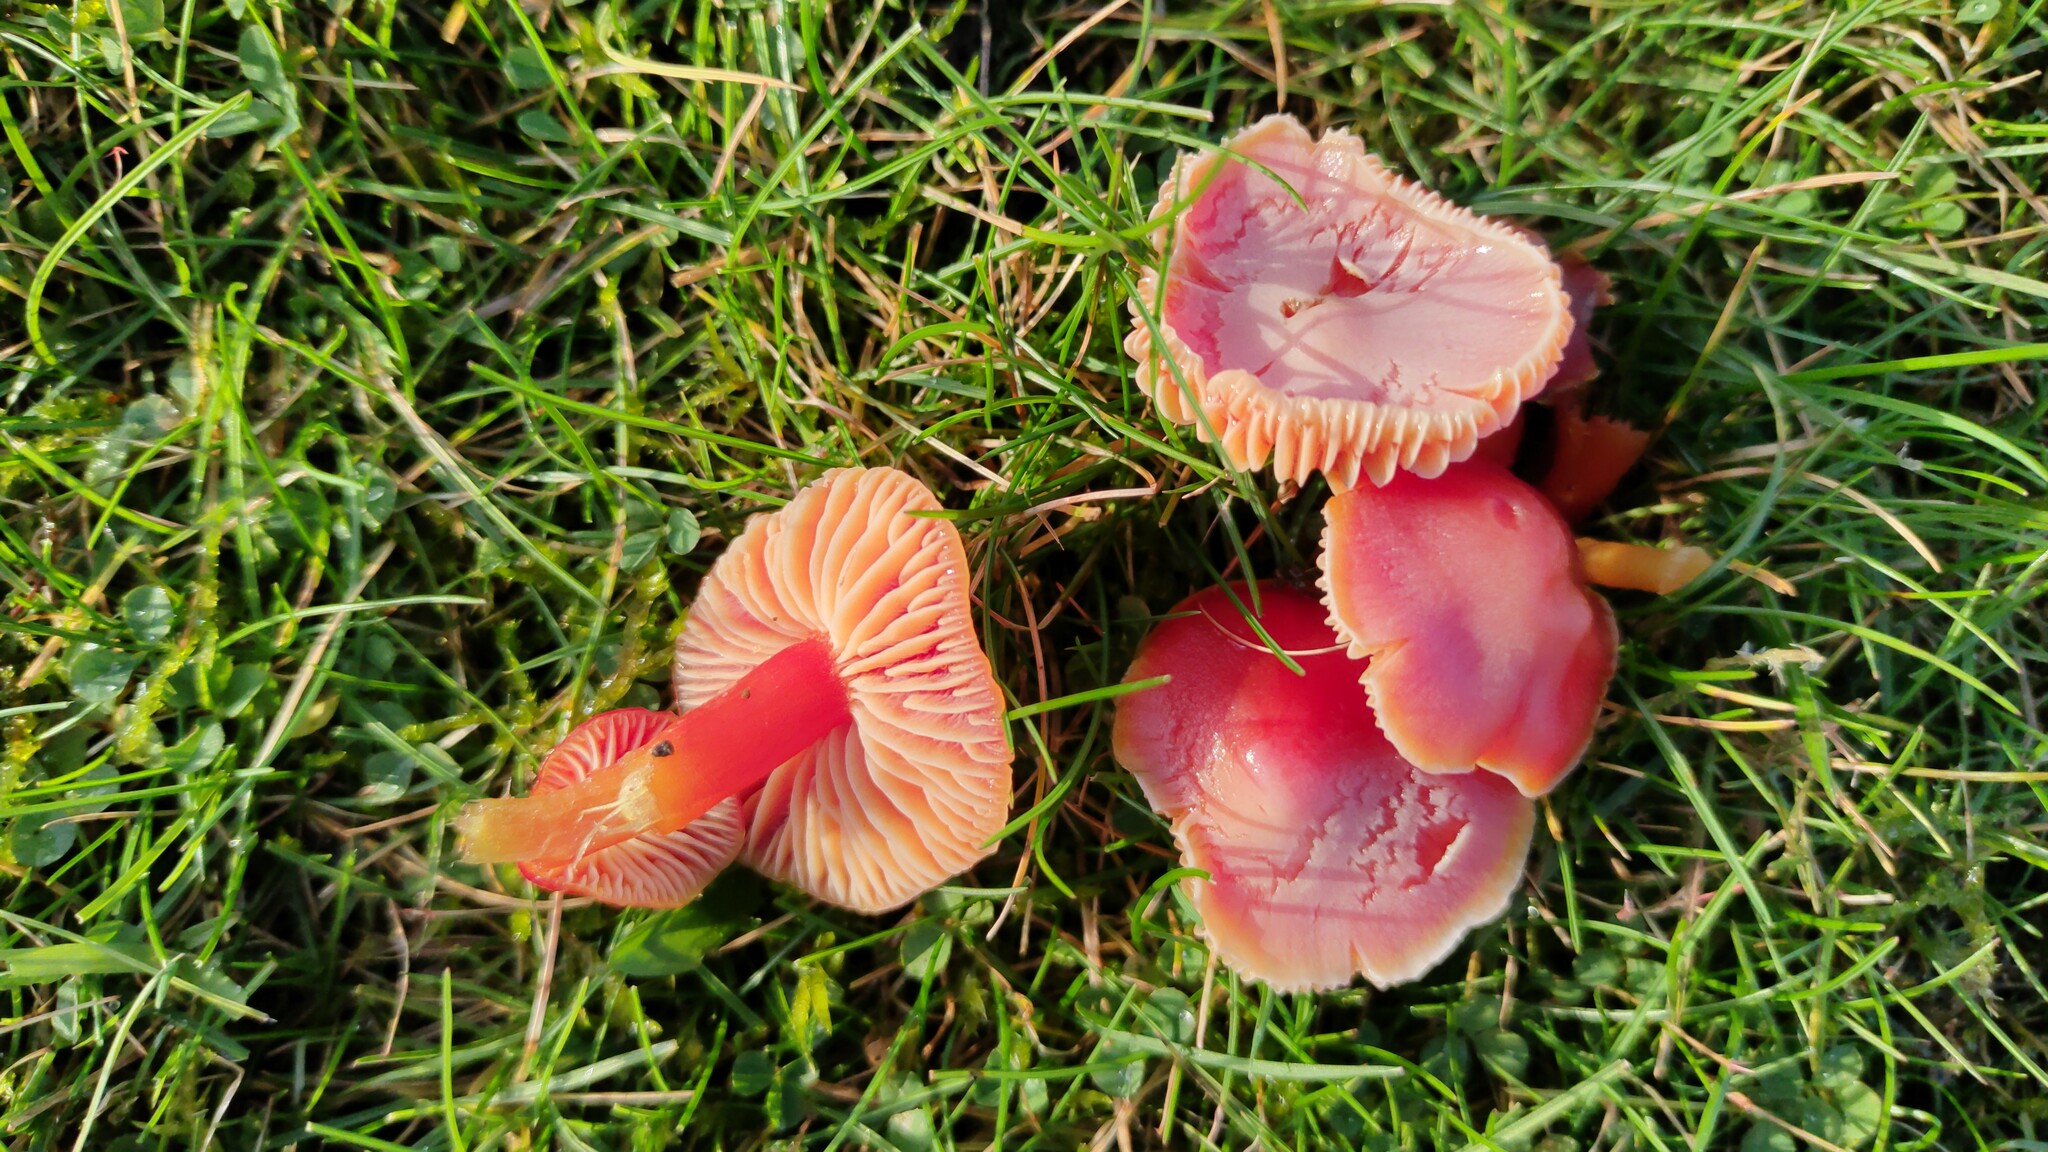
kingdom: Fungi
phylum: Basidiomycota
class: Agaricomycetes
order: Agaricales
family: Hygrophoraceae
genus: Hygrocybe
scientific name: Hygrocybe coccinea
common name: Scarlet hood
